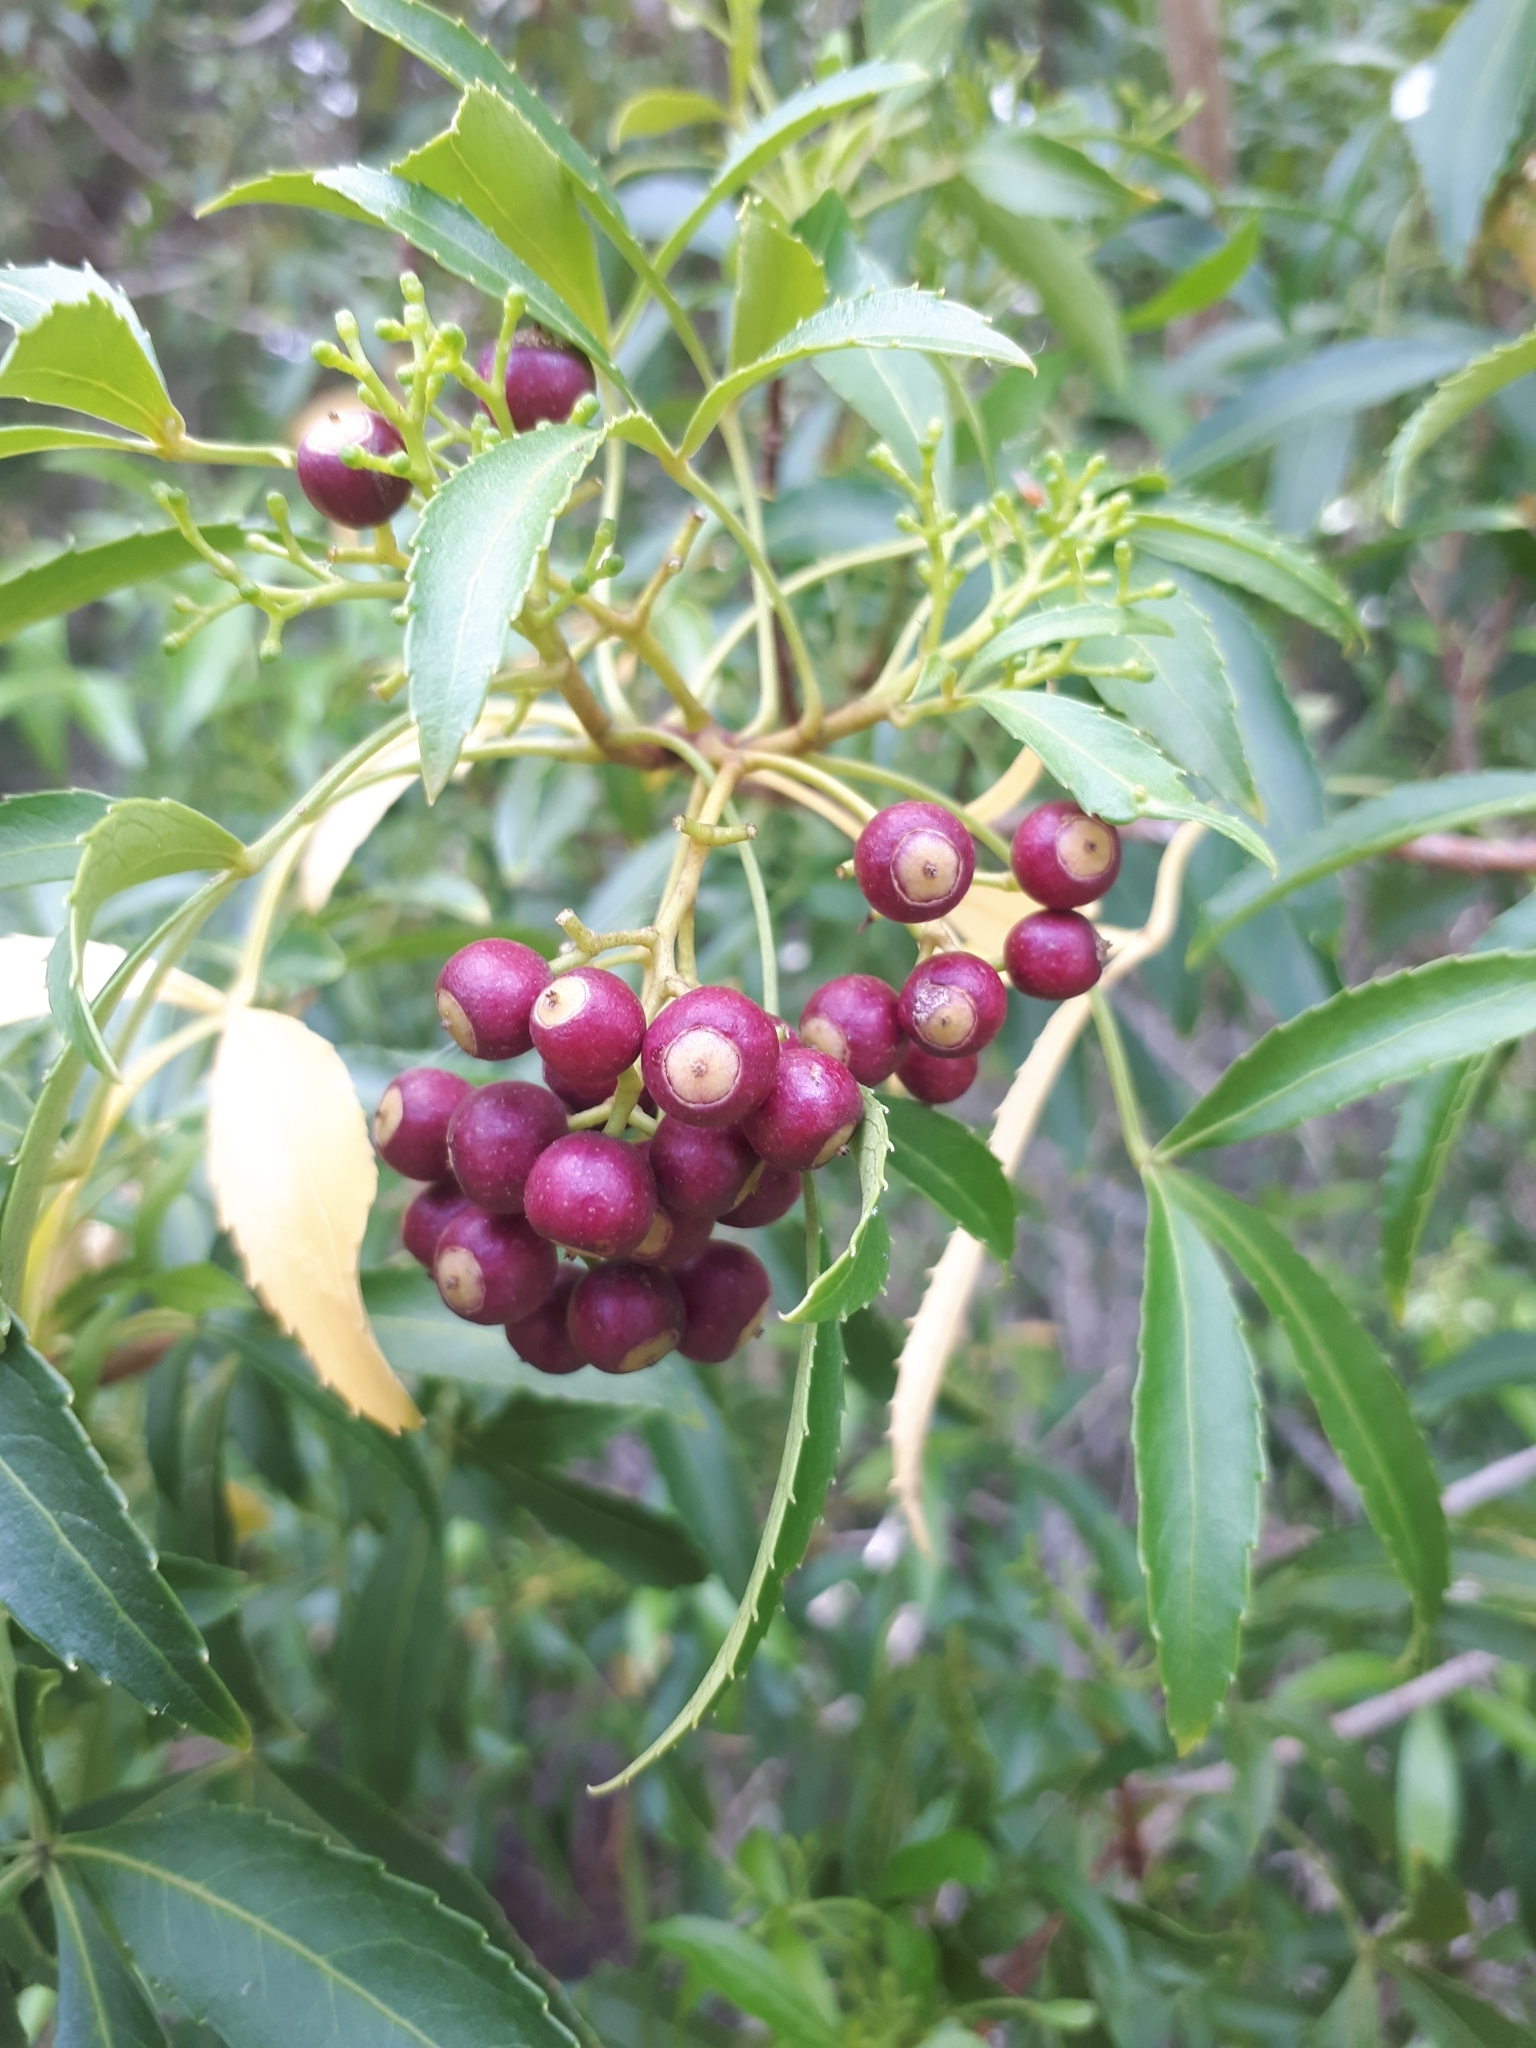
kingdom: Plantae
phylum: Tracheophyta
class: Magnoliopsida
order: Apiales
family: Araliaceae
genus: Raukaua
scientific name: Raukaua laetevirens
